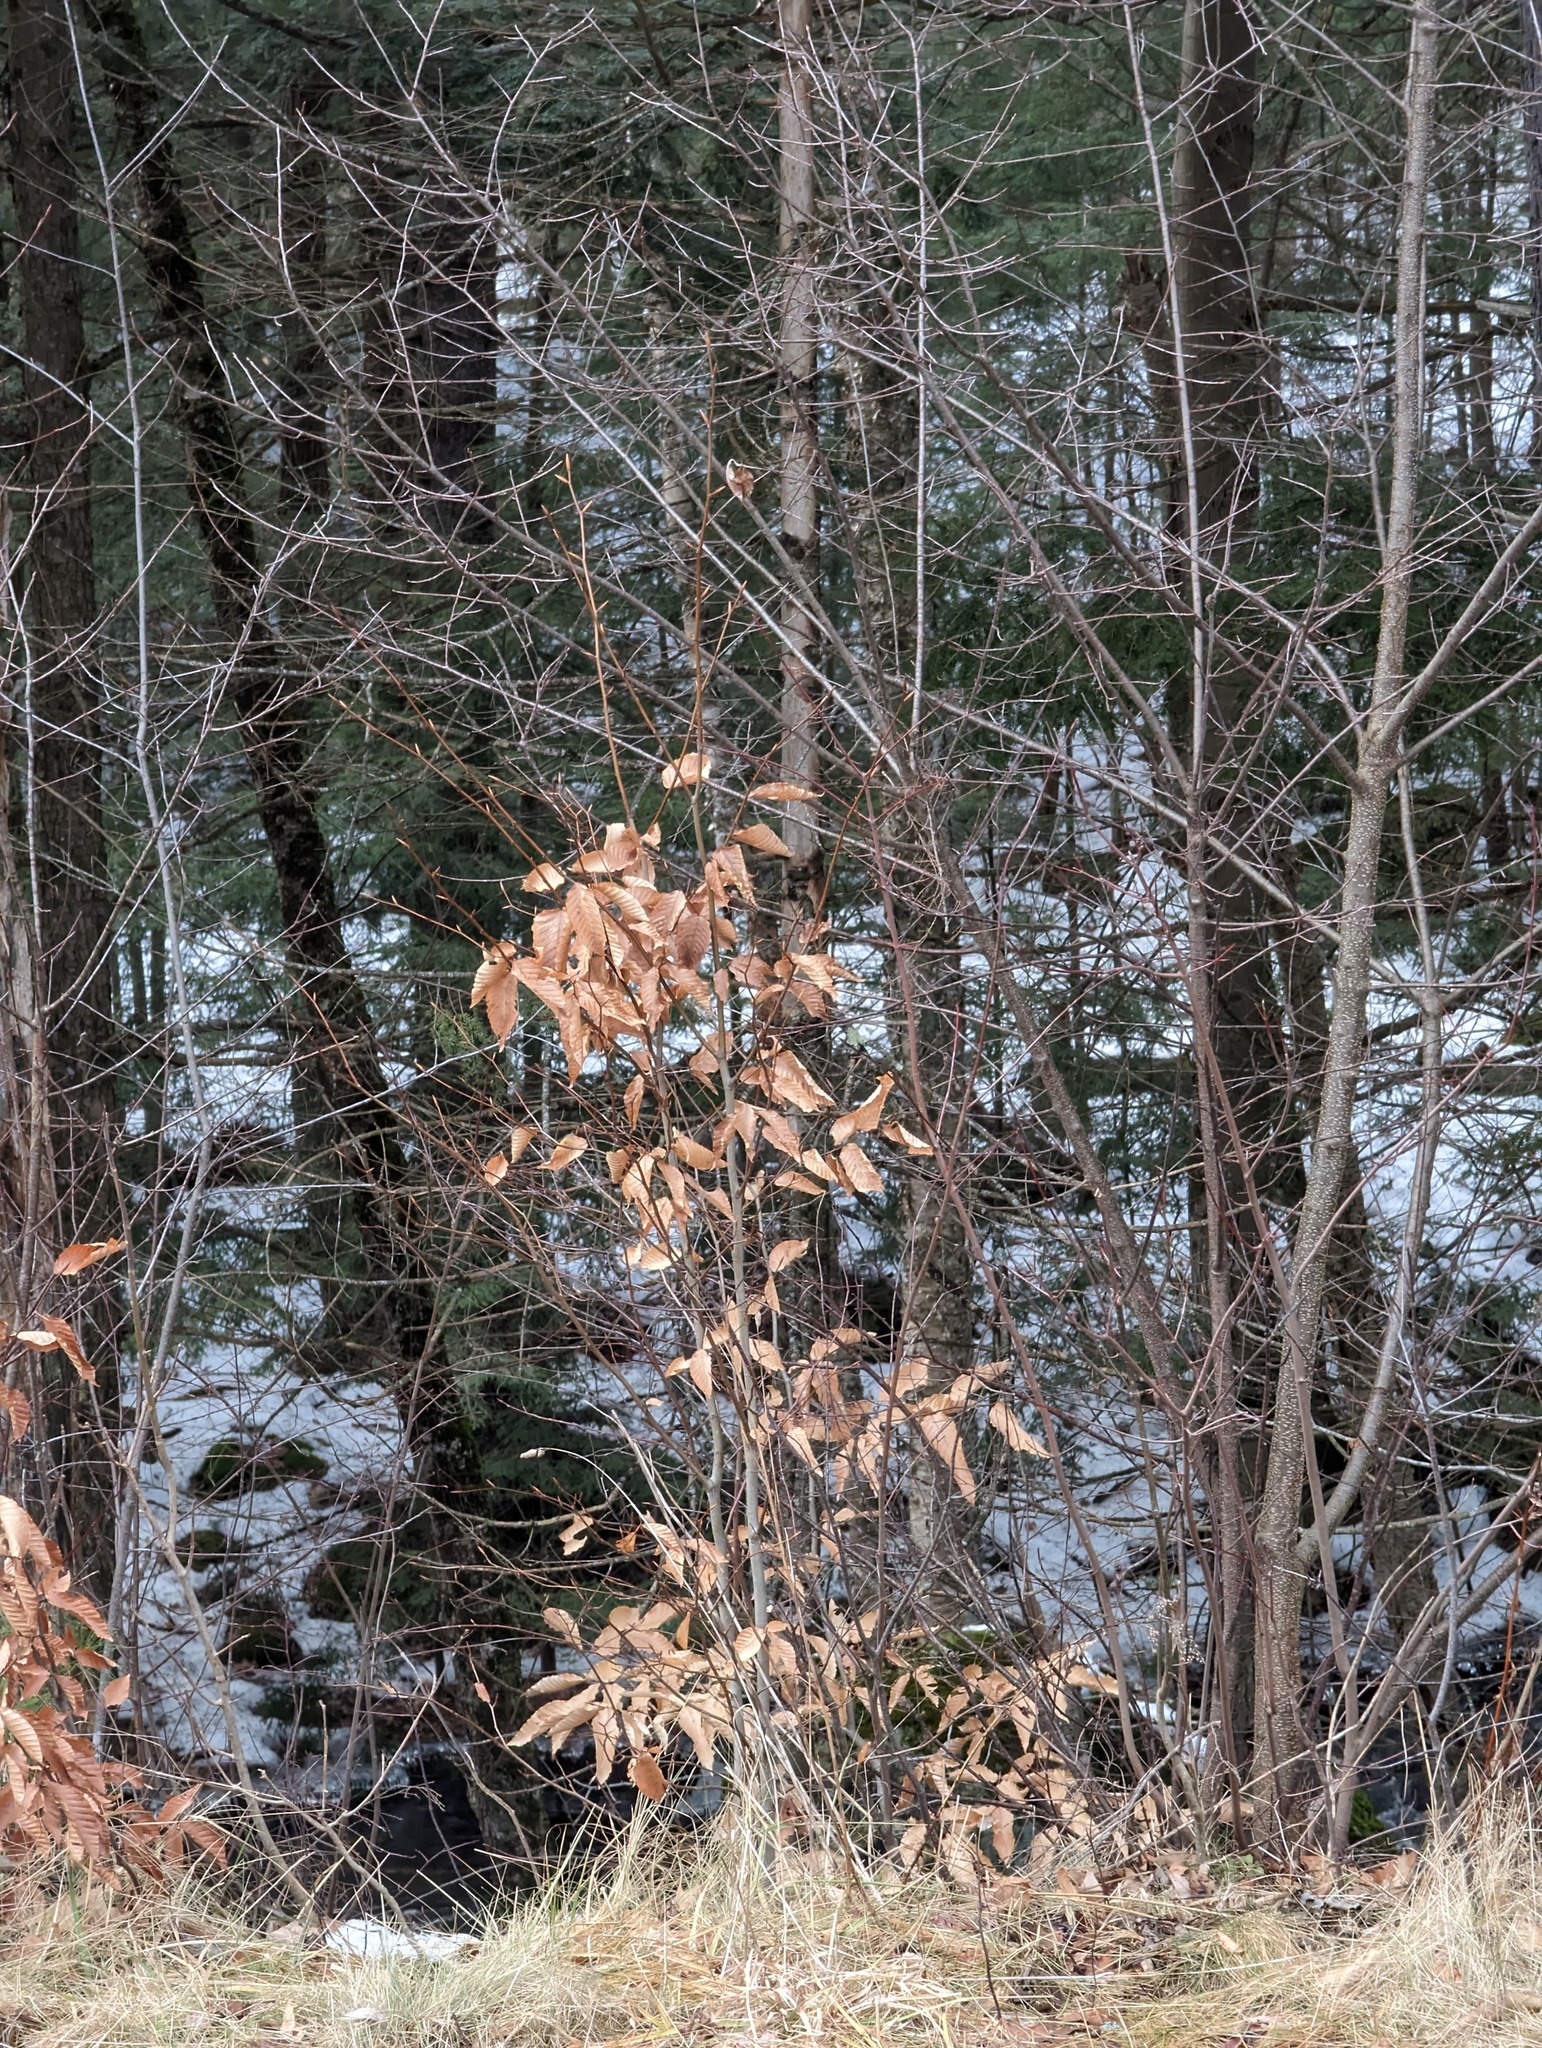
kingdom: Plantae
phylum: Tracheophyta
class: Magnoliopsida
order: Fagales
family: Fagaceae
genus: Fagus
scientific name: Fagus grandifolia
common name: American beech
